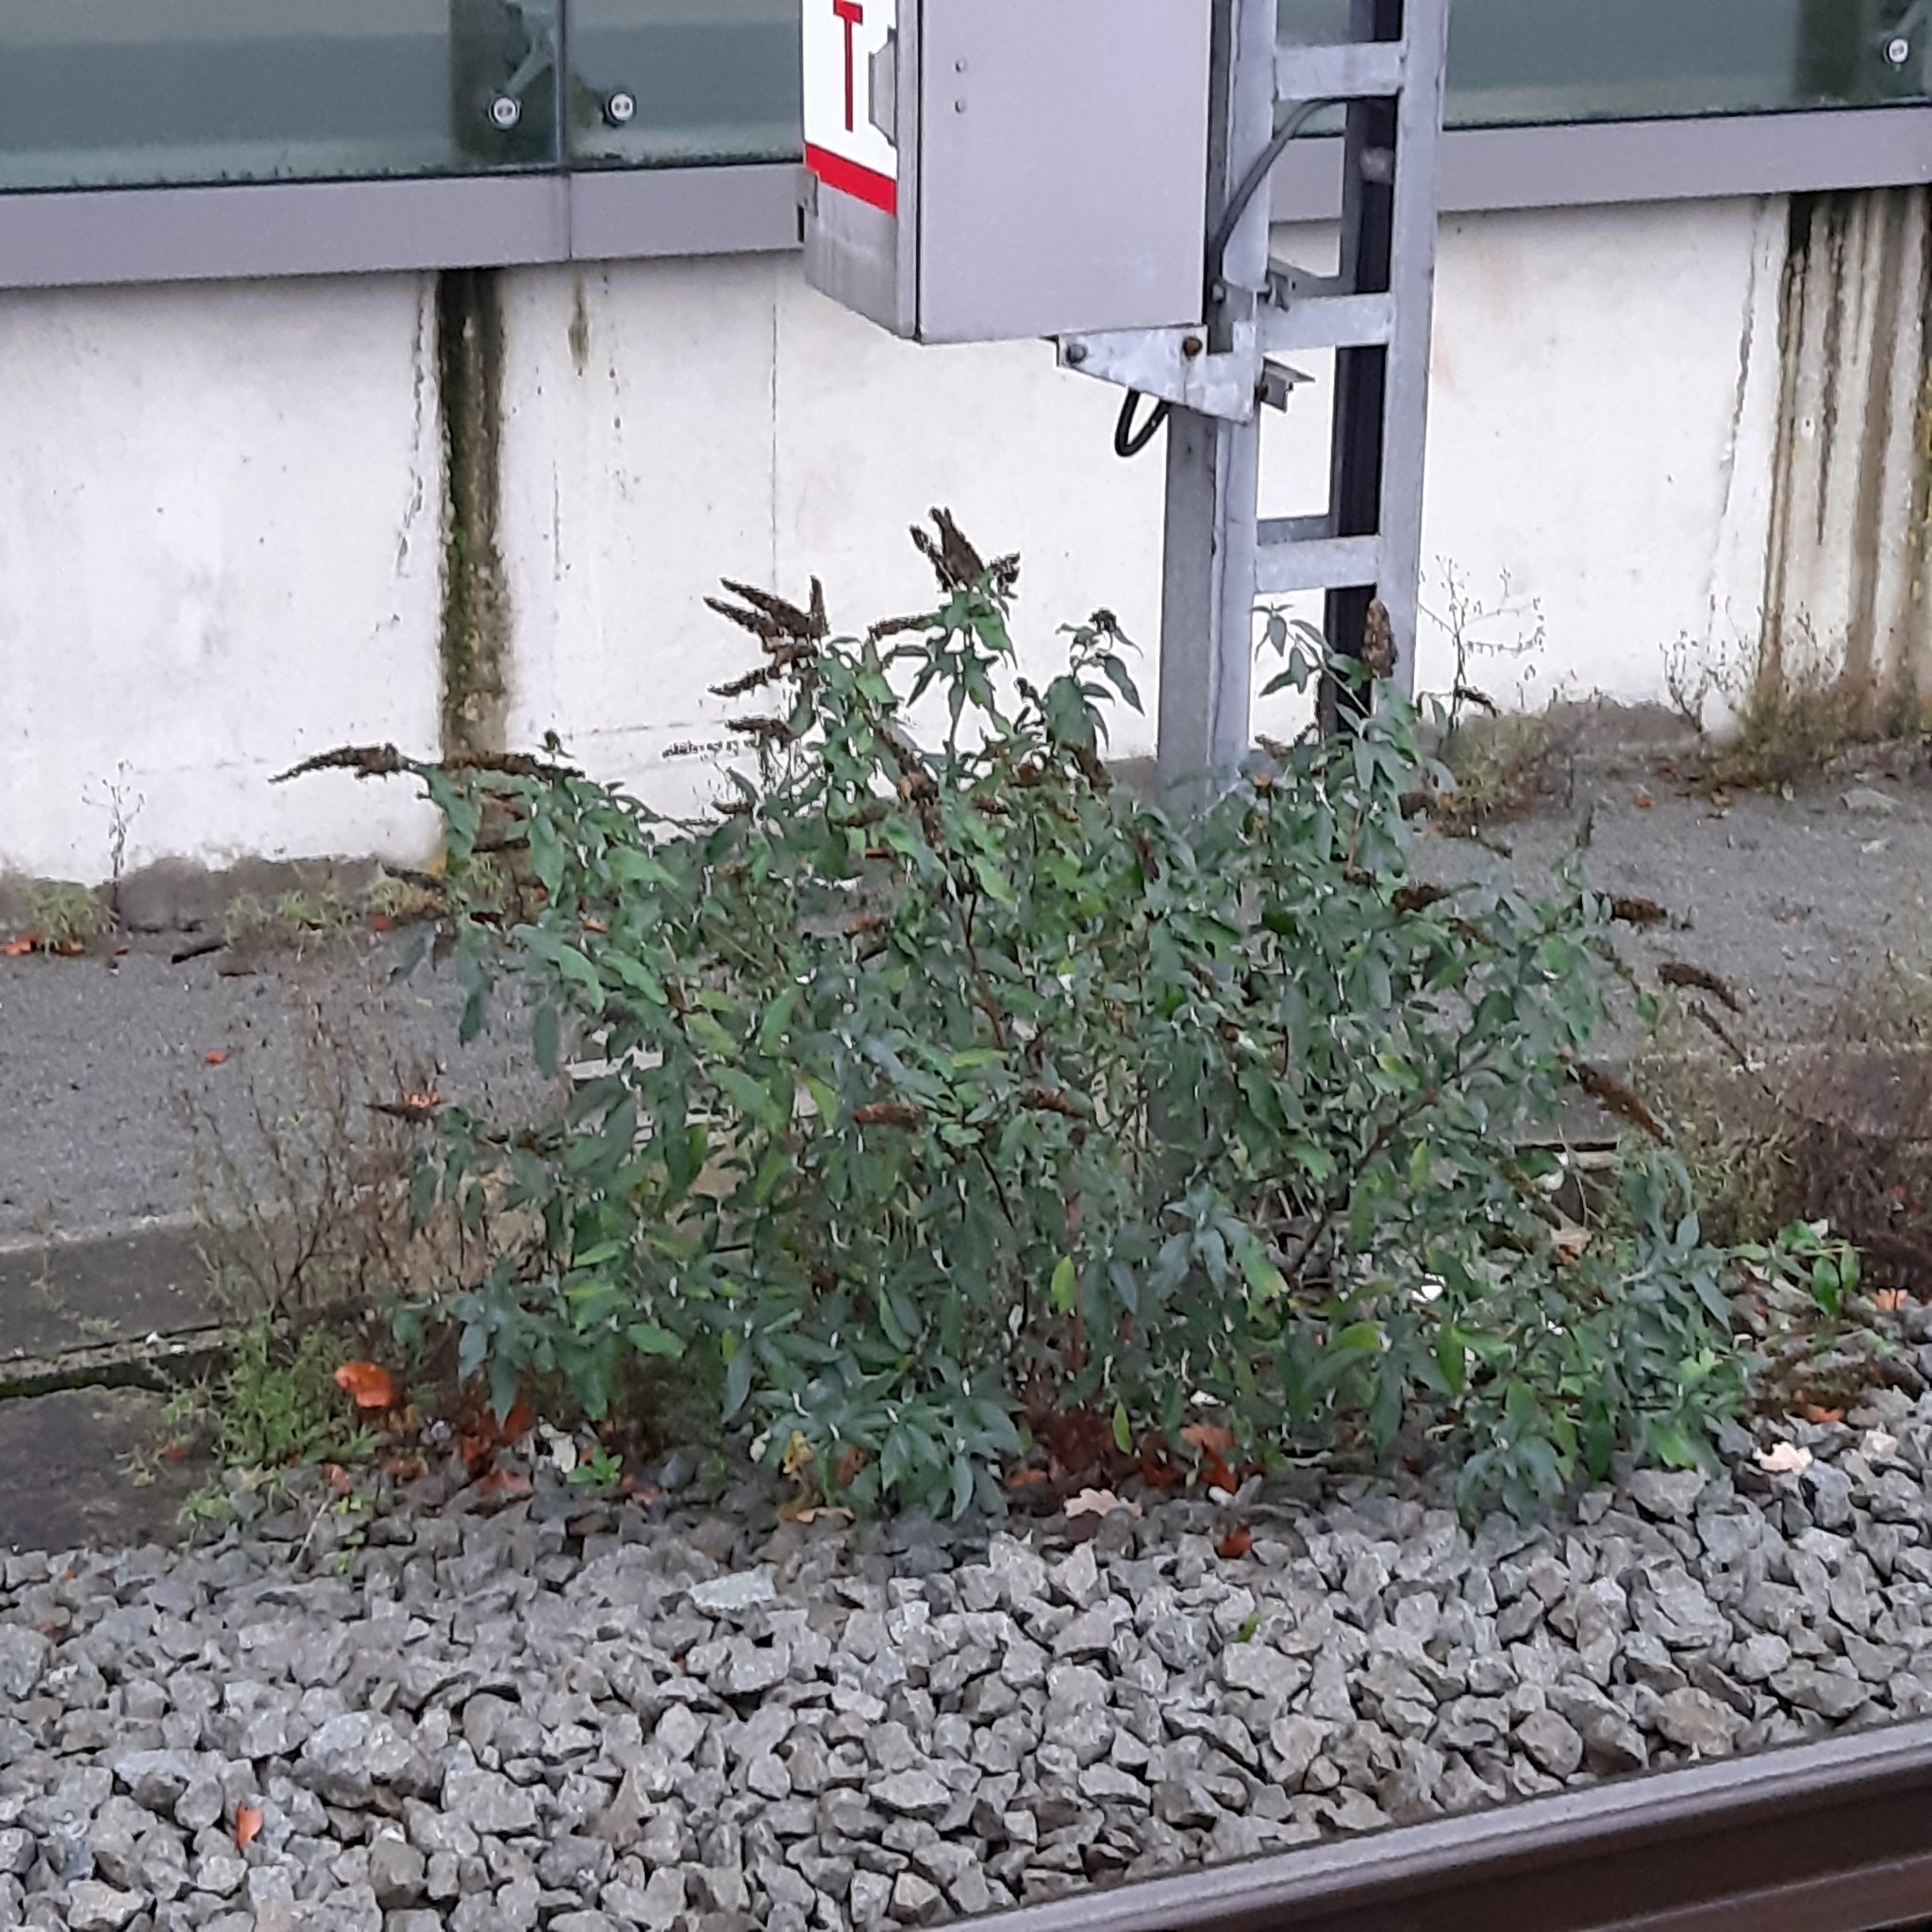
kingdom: Plantae
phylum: Tracheophyta
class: Magnoliopsida
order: Lamiales
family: Scrophulariaceae
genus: Buddleja
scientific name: Buddleja davidii
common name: Butterfly-bush
